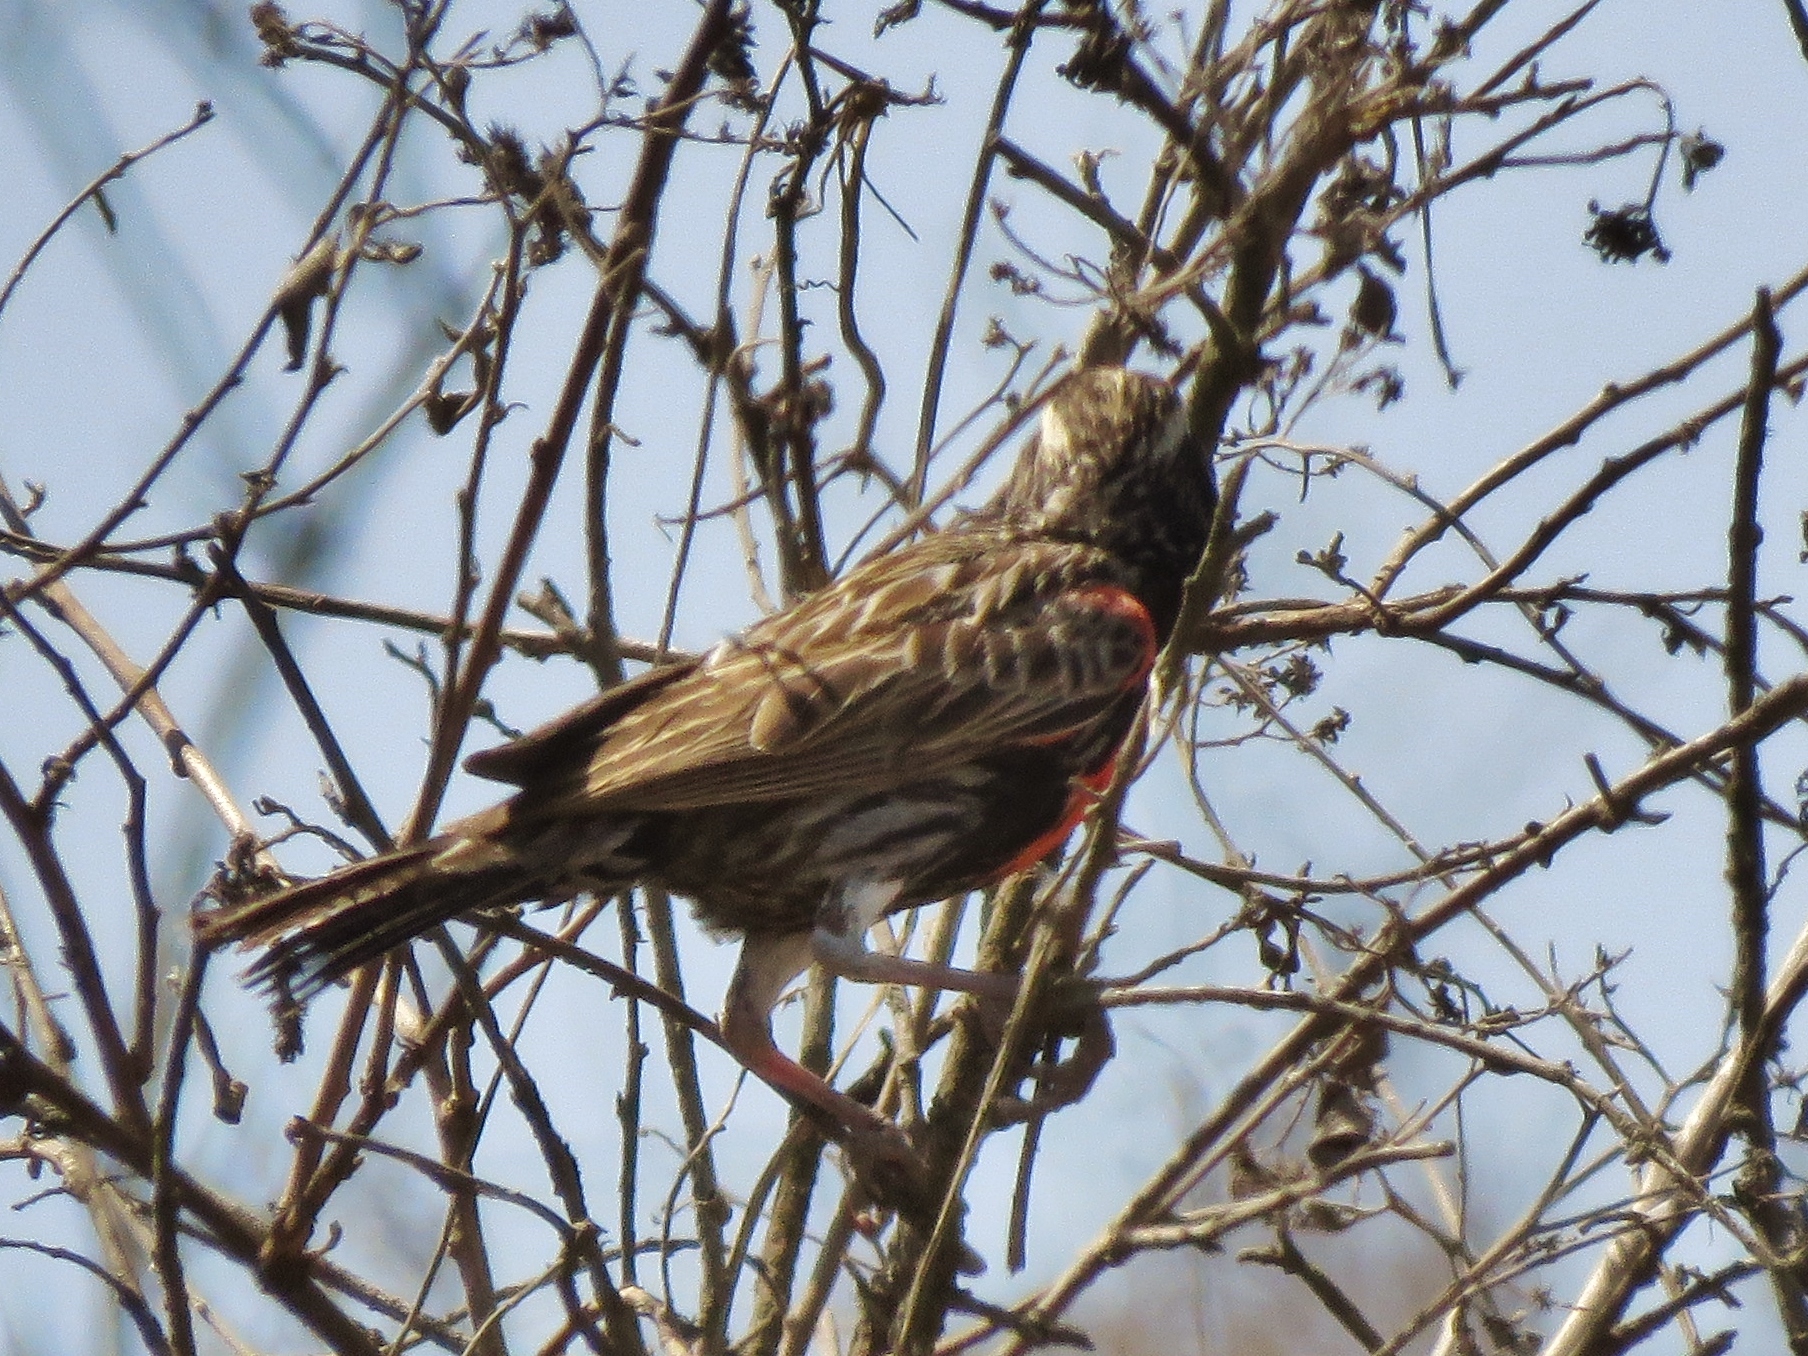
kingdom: Animalia
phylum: Chordata
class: Aves
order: Passeriformes
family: Icteridae
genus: Sturnella
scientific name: Sturnella bellicosa
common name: Peruvian meadowlark
